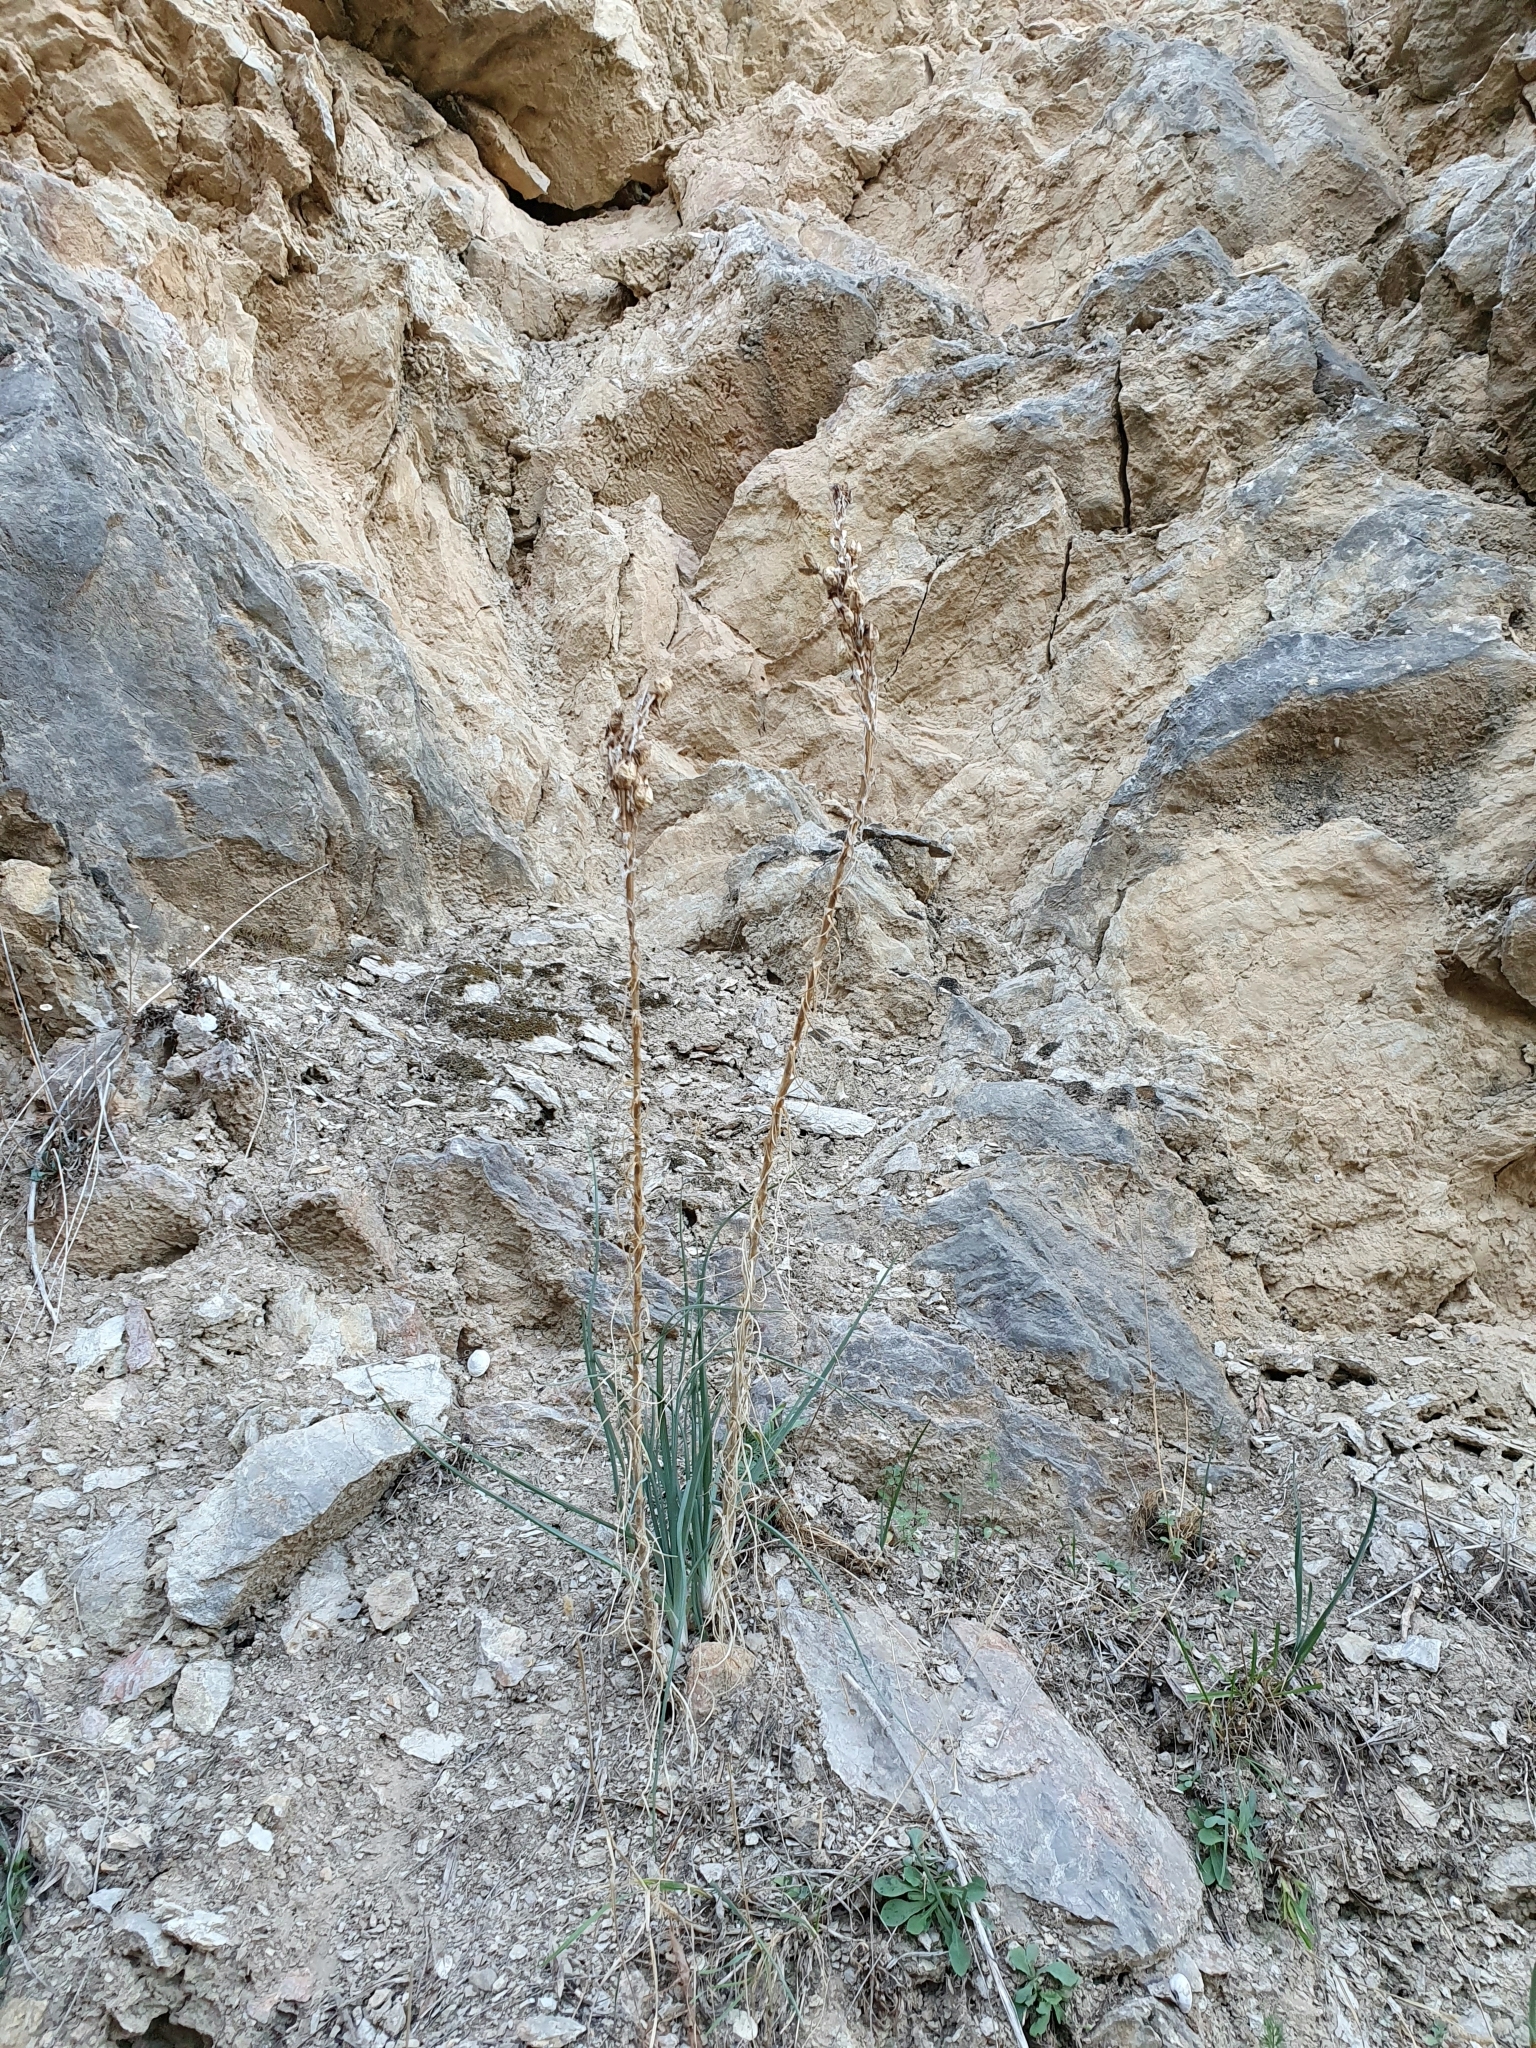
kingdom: Plantae
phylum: Tracheophyta
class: Liliopsida
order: Asparagales
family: Asphodelaceae
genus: Asphodeline
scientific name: Asphodeline lutea
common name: Yellow asphodel
